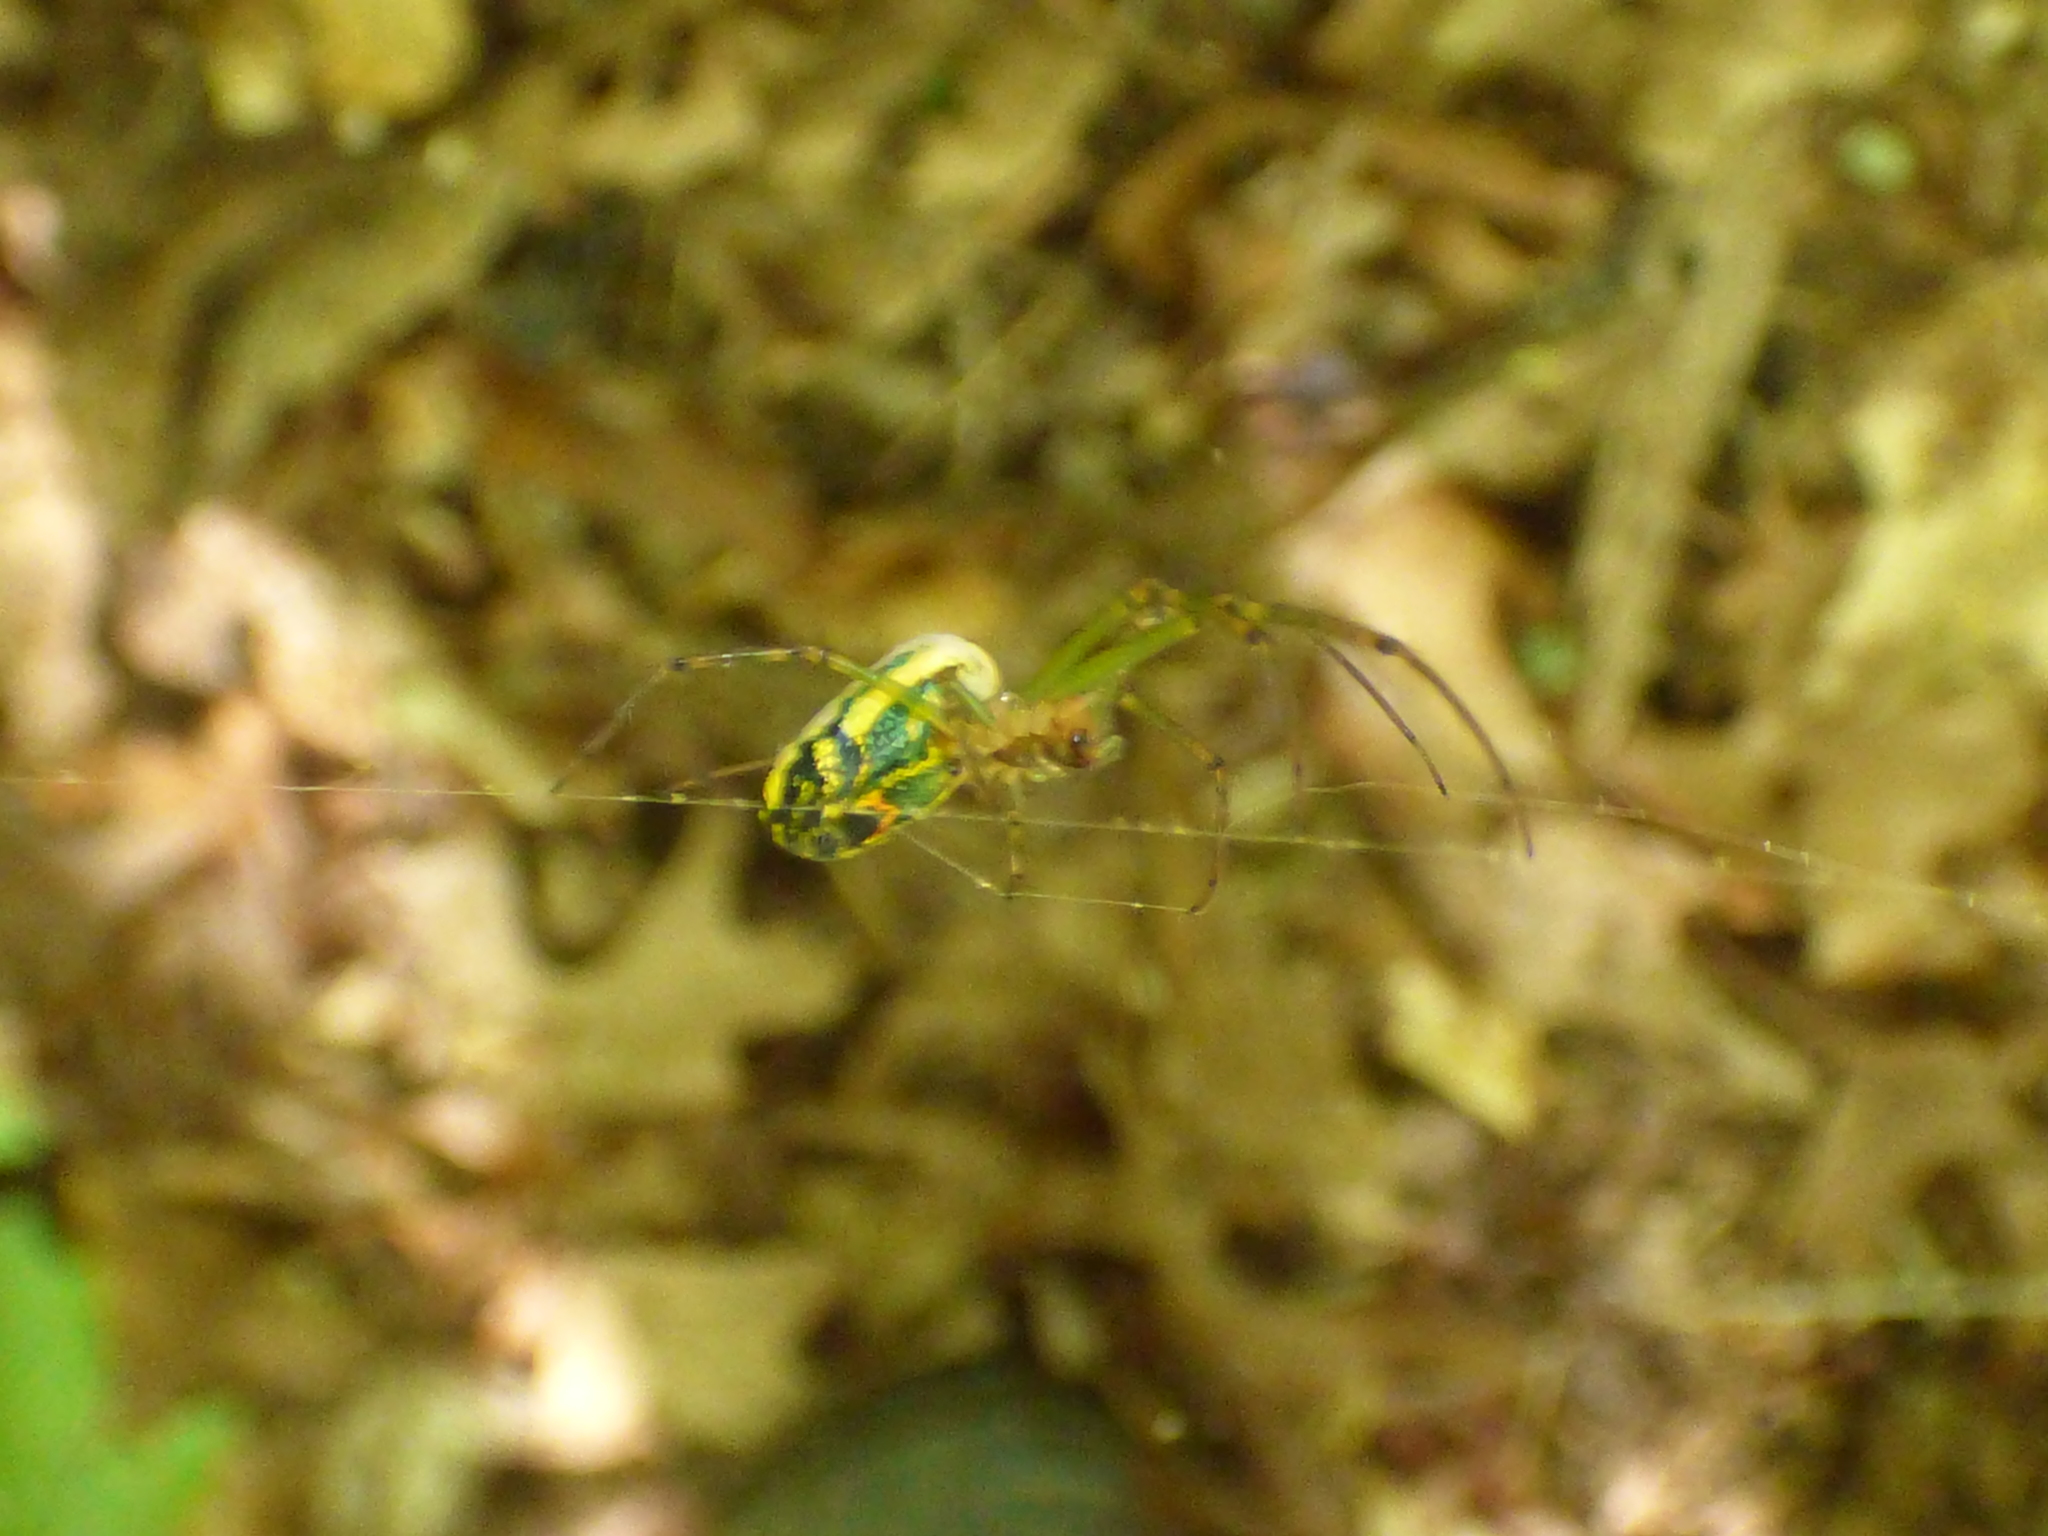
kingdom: Animalia
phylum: Arthropoda
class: Arachnida
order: Araneae
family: Tetragnathidae
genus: Leucauge
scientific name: Leucauge venusta
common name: Longjawed orb weavers
